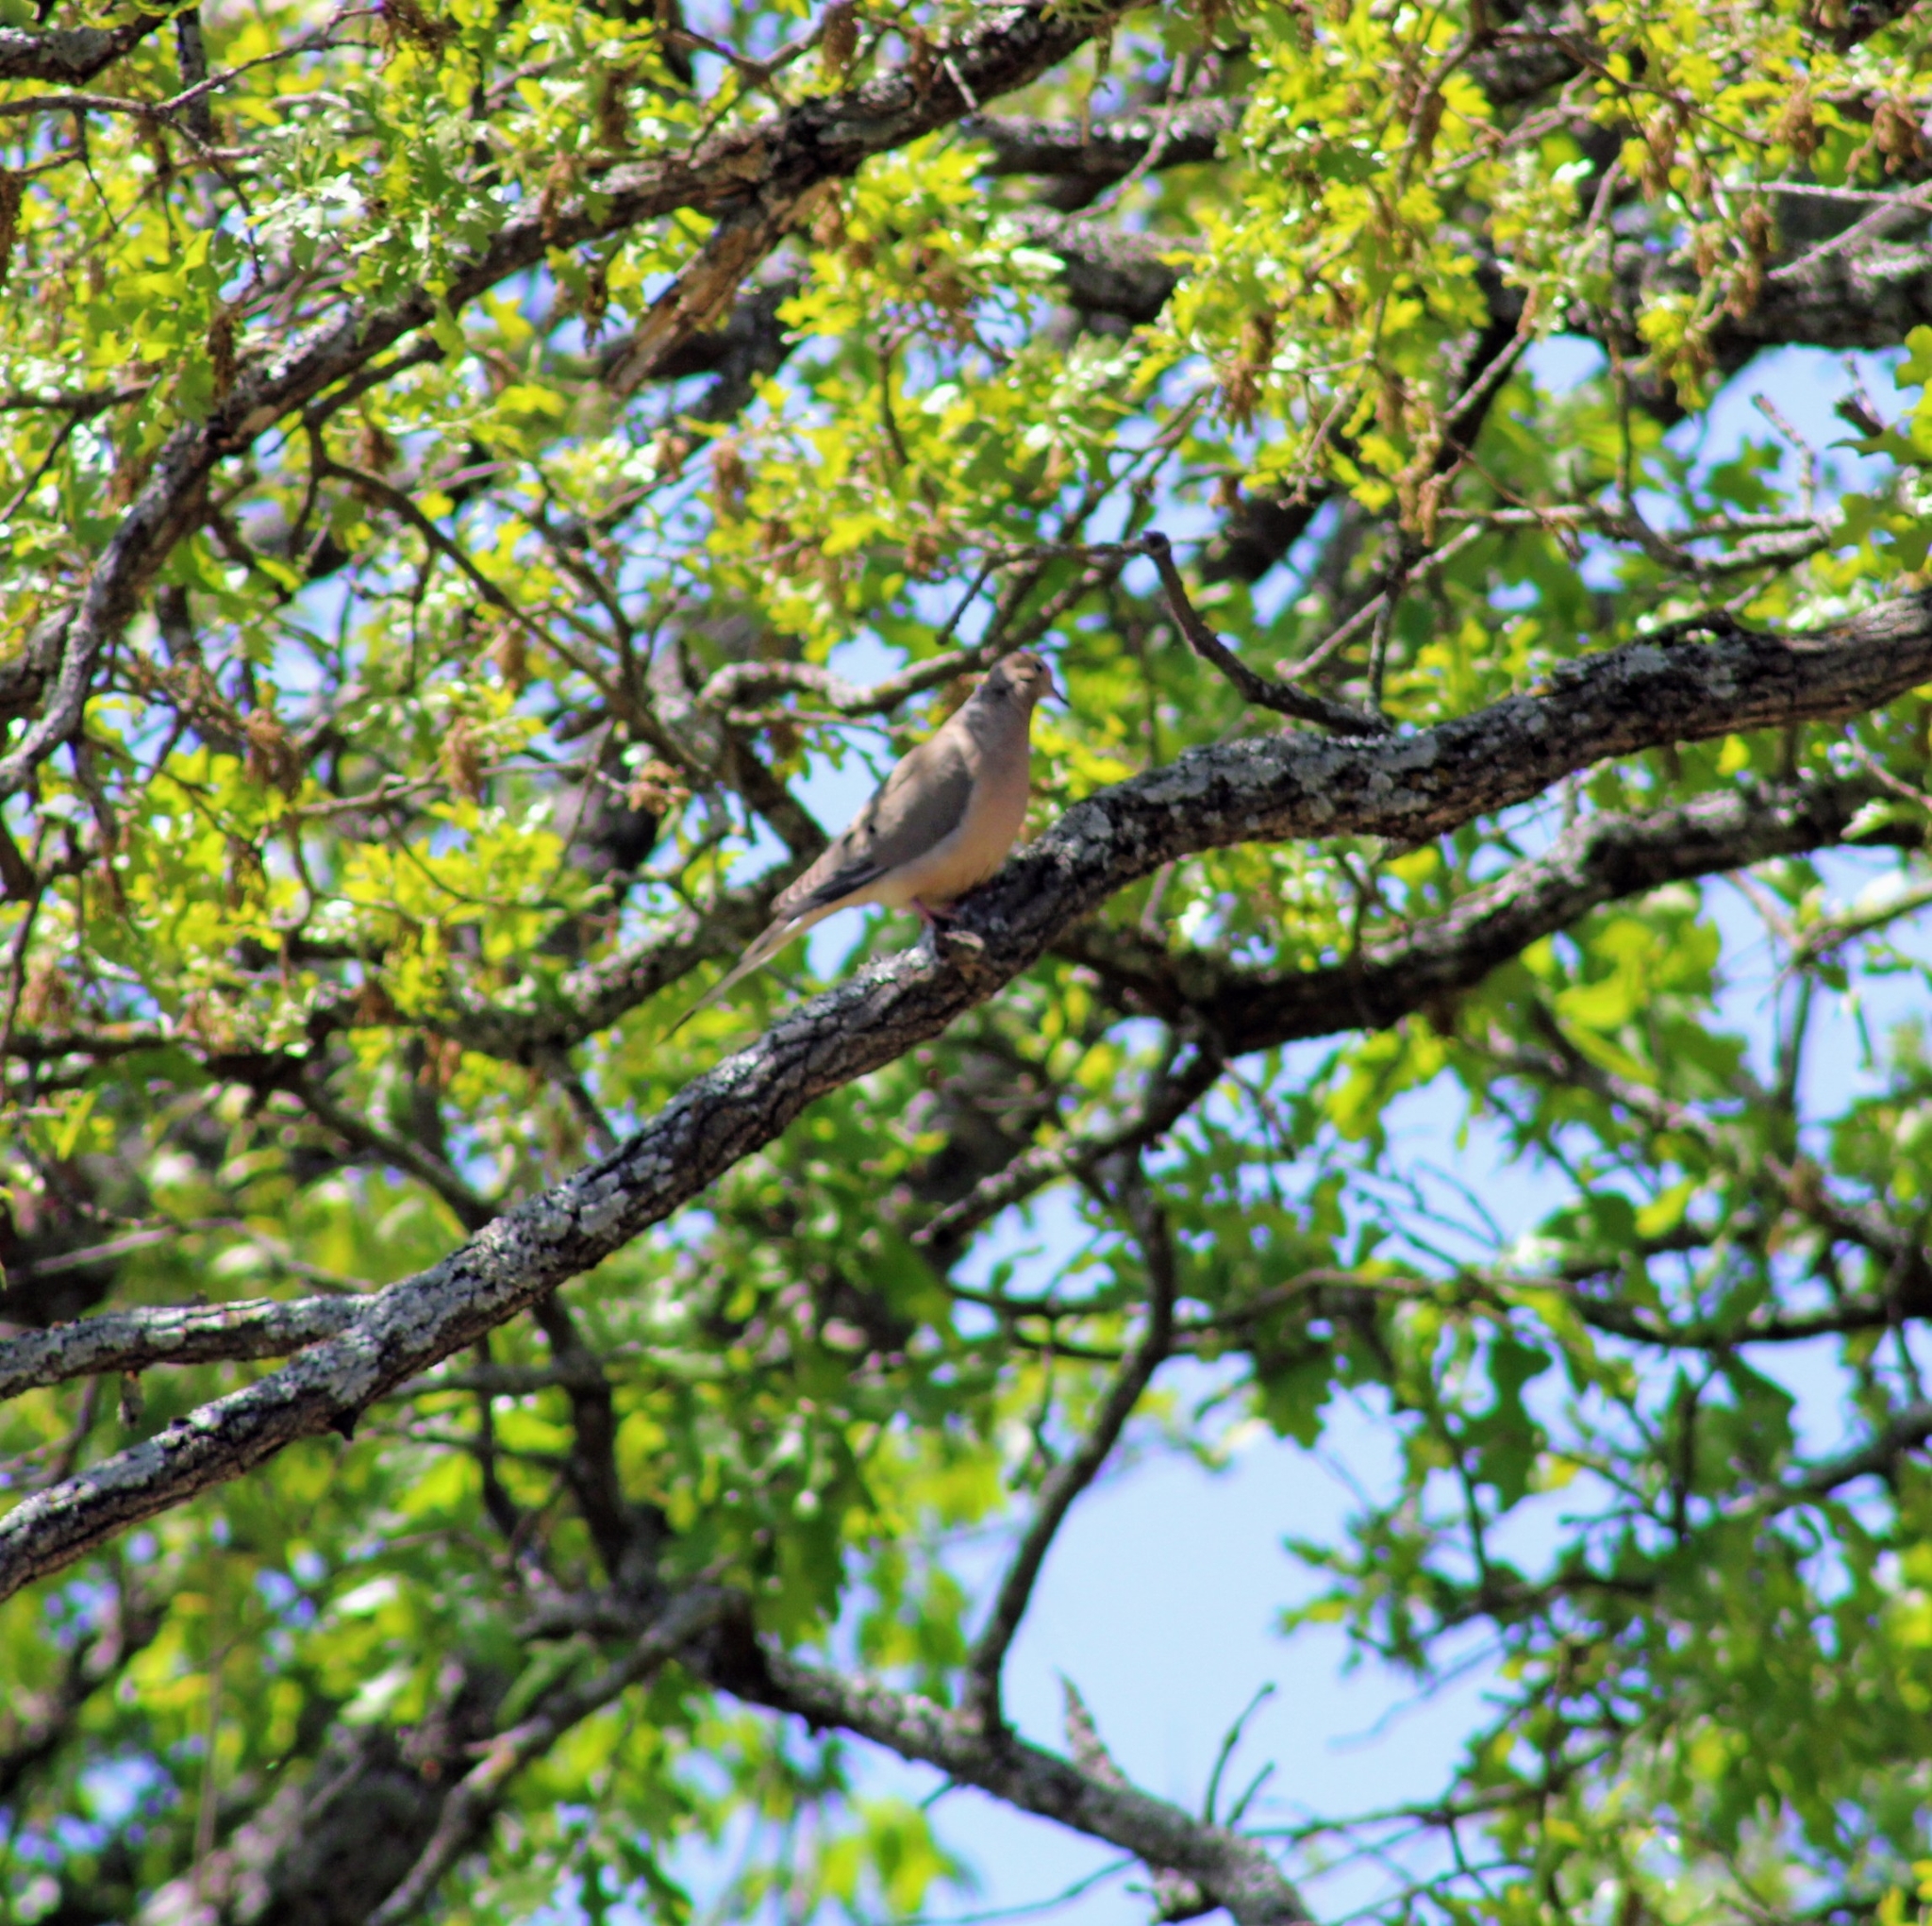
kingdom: Animalia
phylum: Chordata
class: Aves
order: Columbiformes
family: Columbidae
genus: Zenaida
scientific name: Zenaida macroura
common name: Mourning dove
